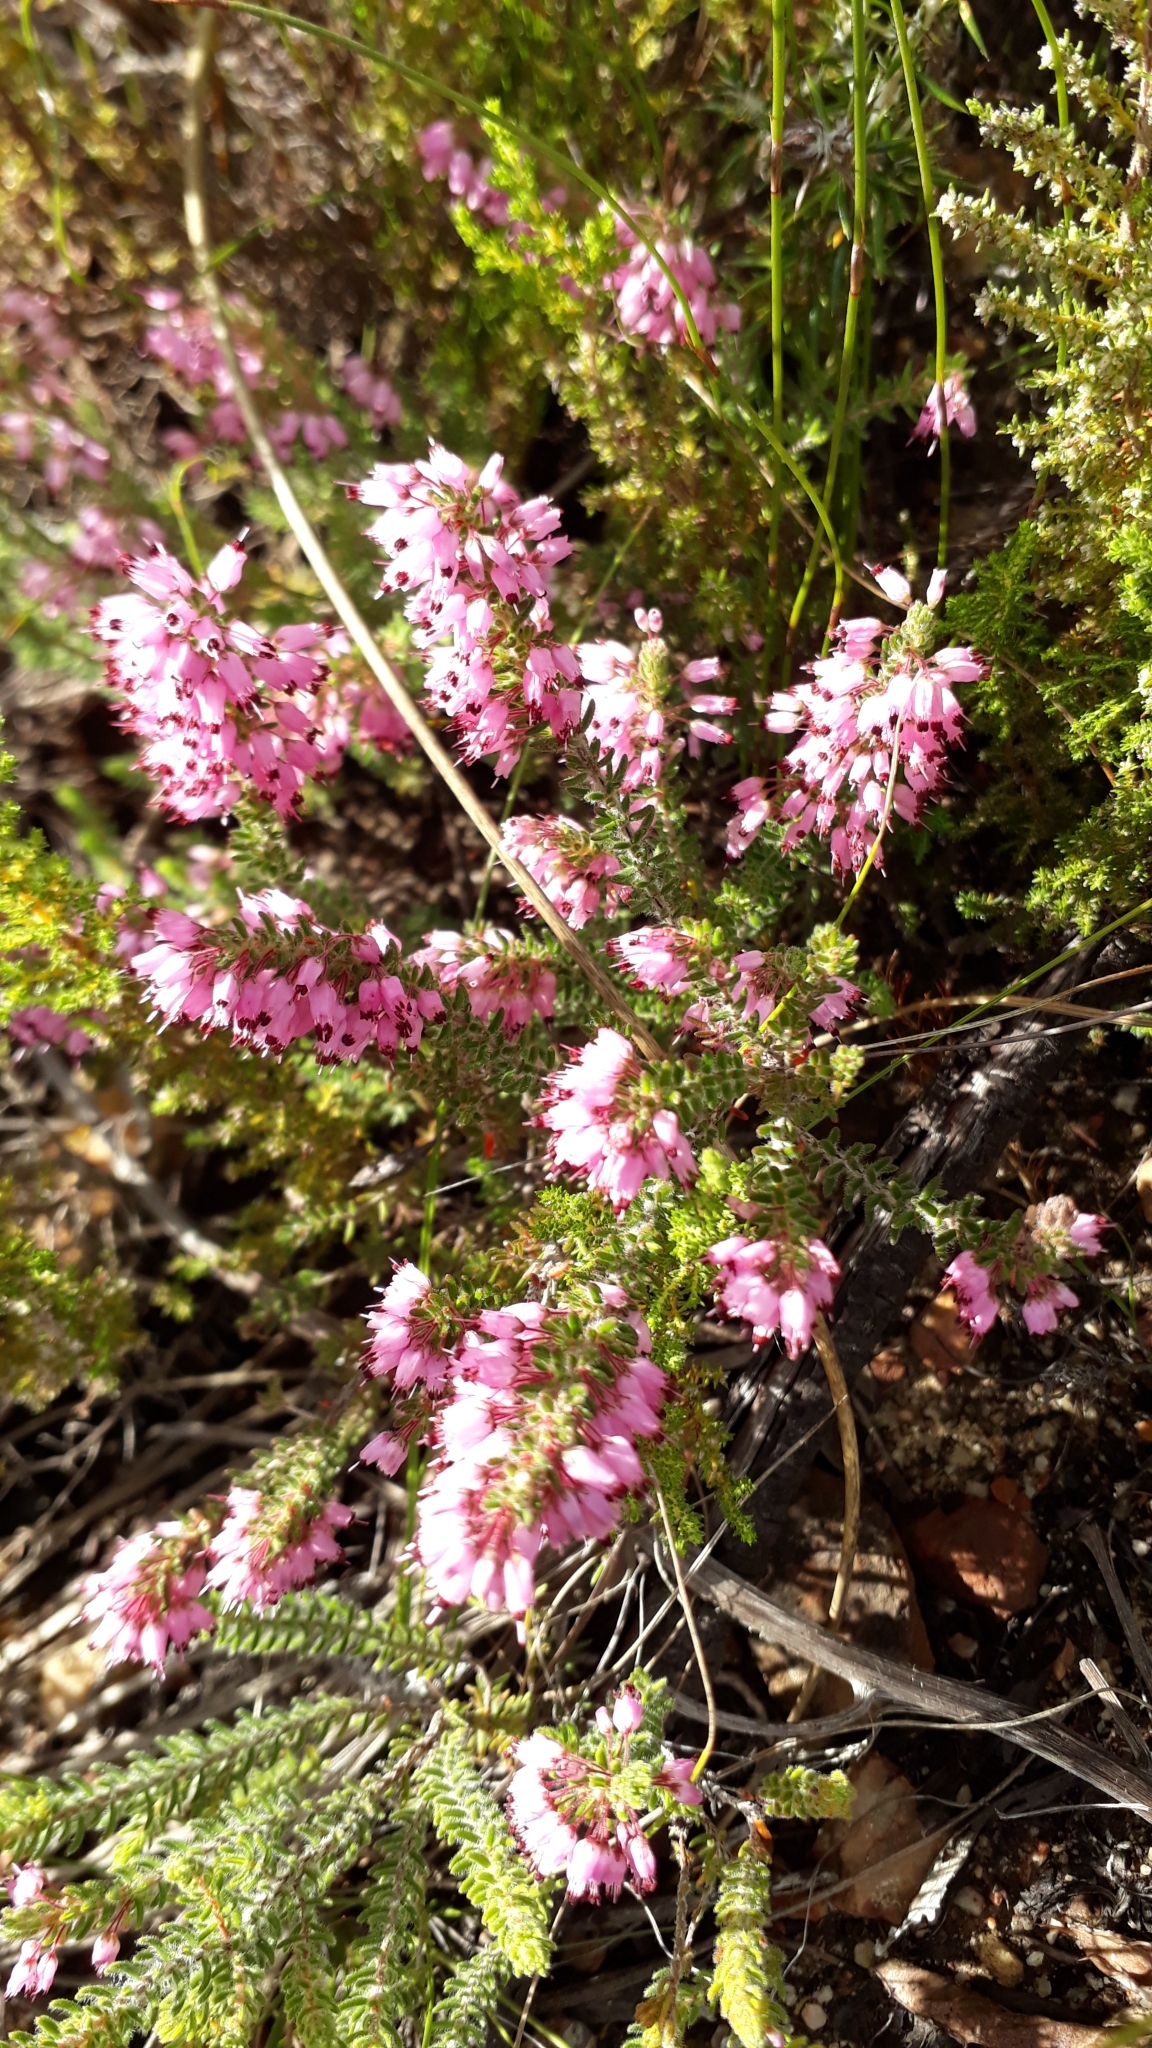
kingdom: Plantae
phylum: Tracheophyta
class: Magnoliopsida
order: Ericales
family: Ericaceae
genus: Erica
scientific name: Erica nudiflora
